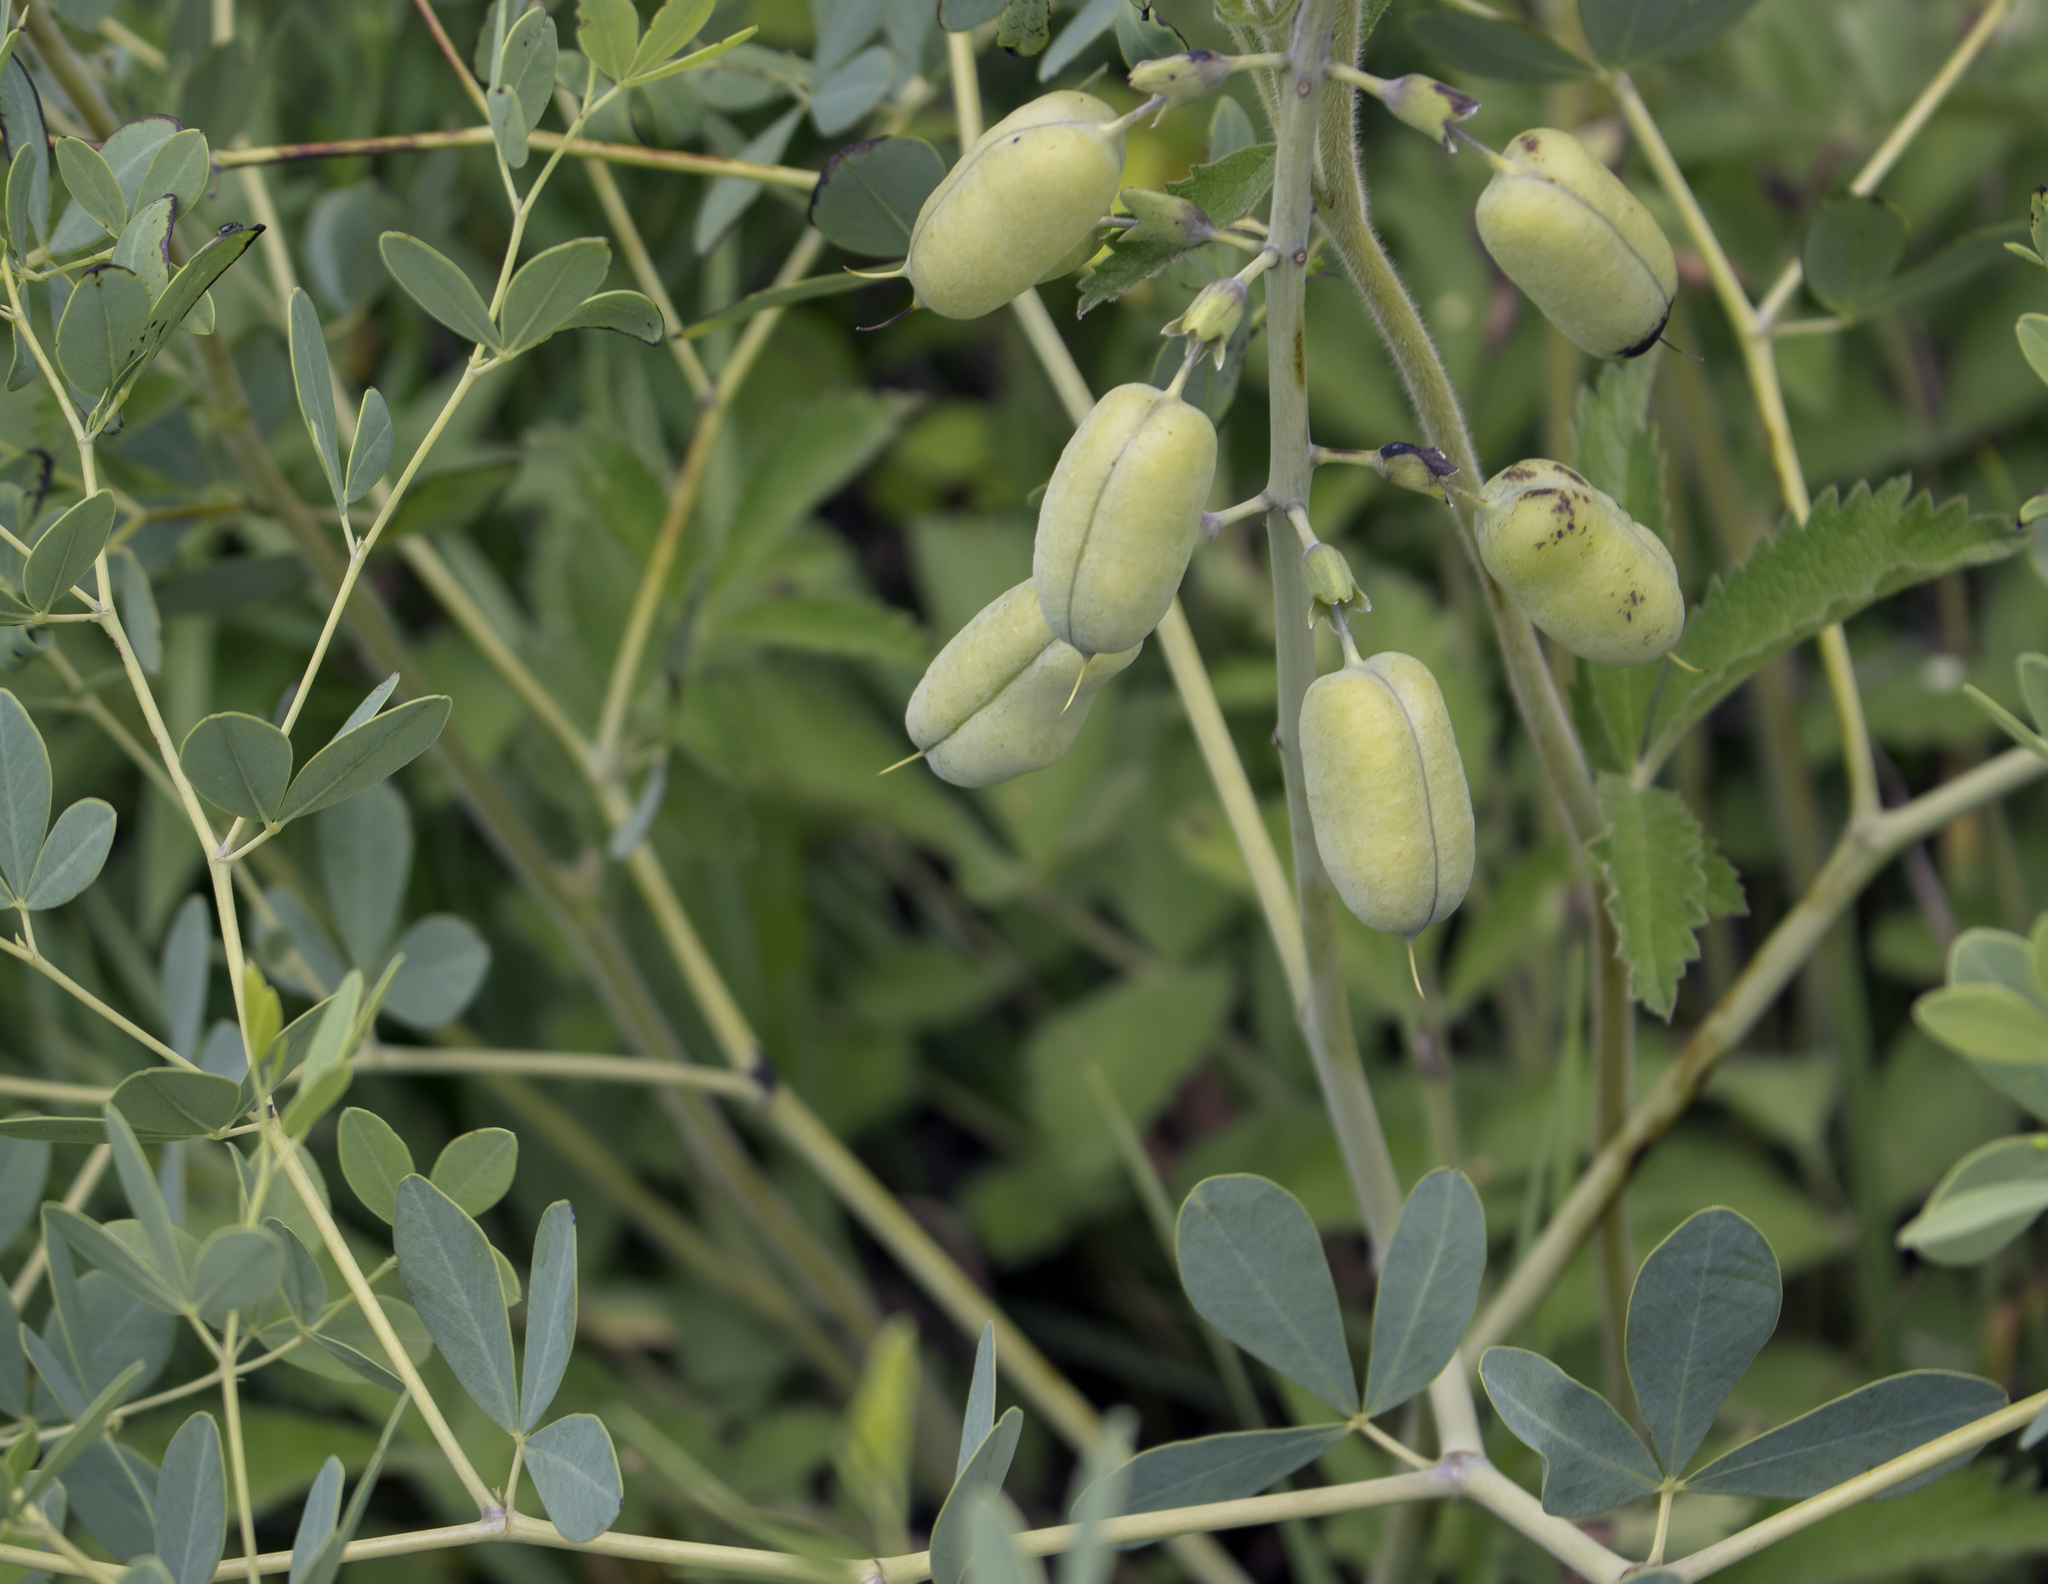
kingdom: Plantae
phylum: Tracheophyta
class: Magnoliopsida
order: Fabales
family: Fabaceae
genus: Baptisia
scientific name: Baptisia alba
